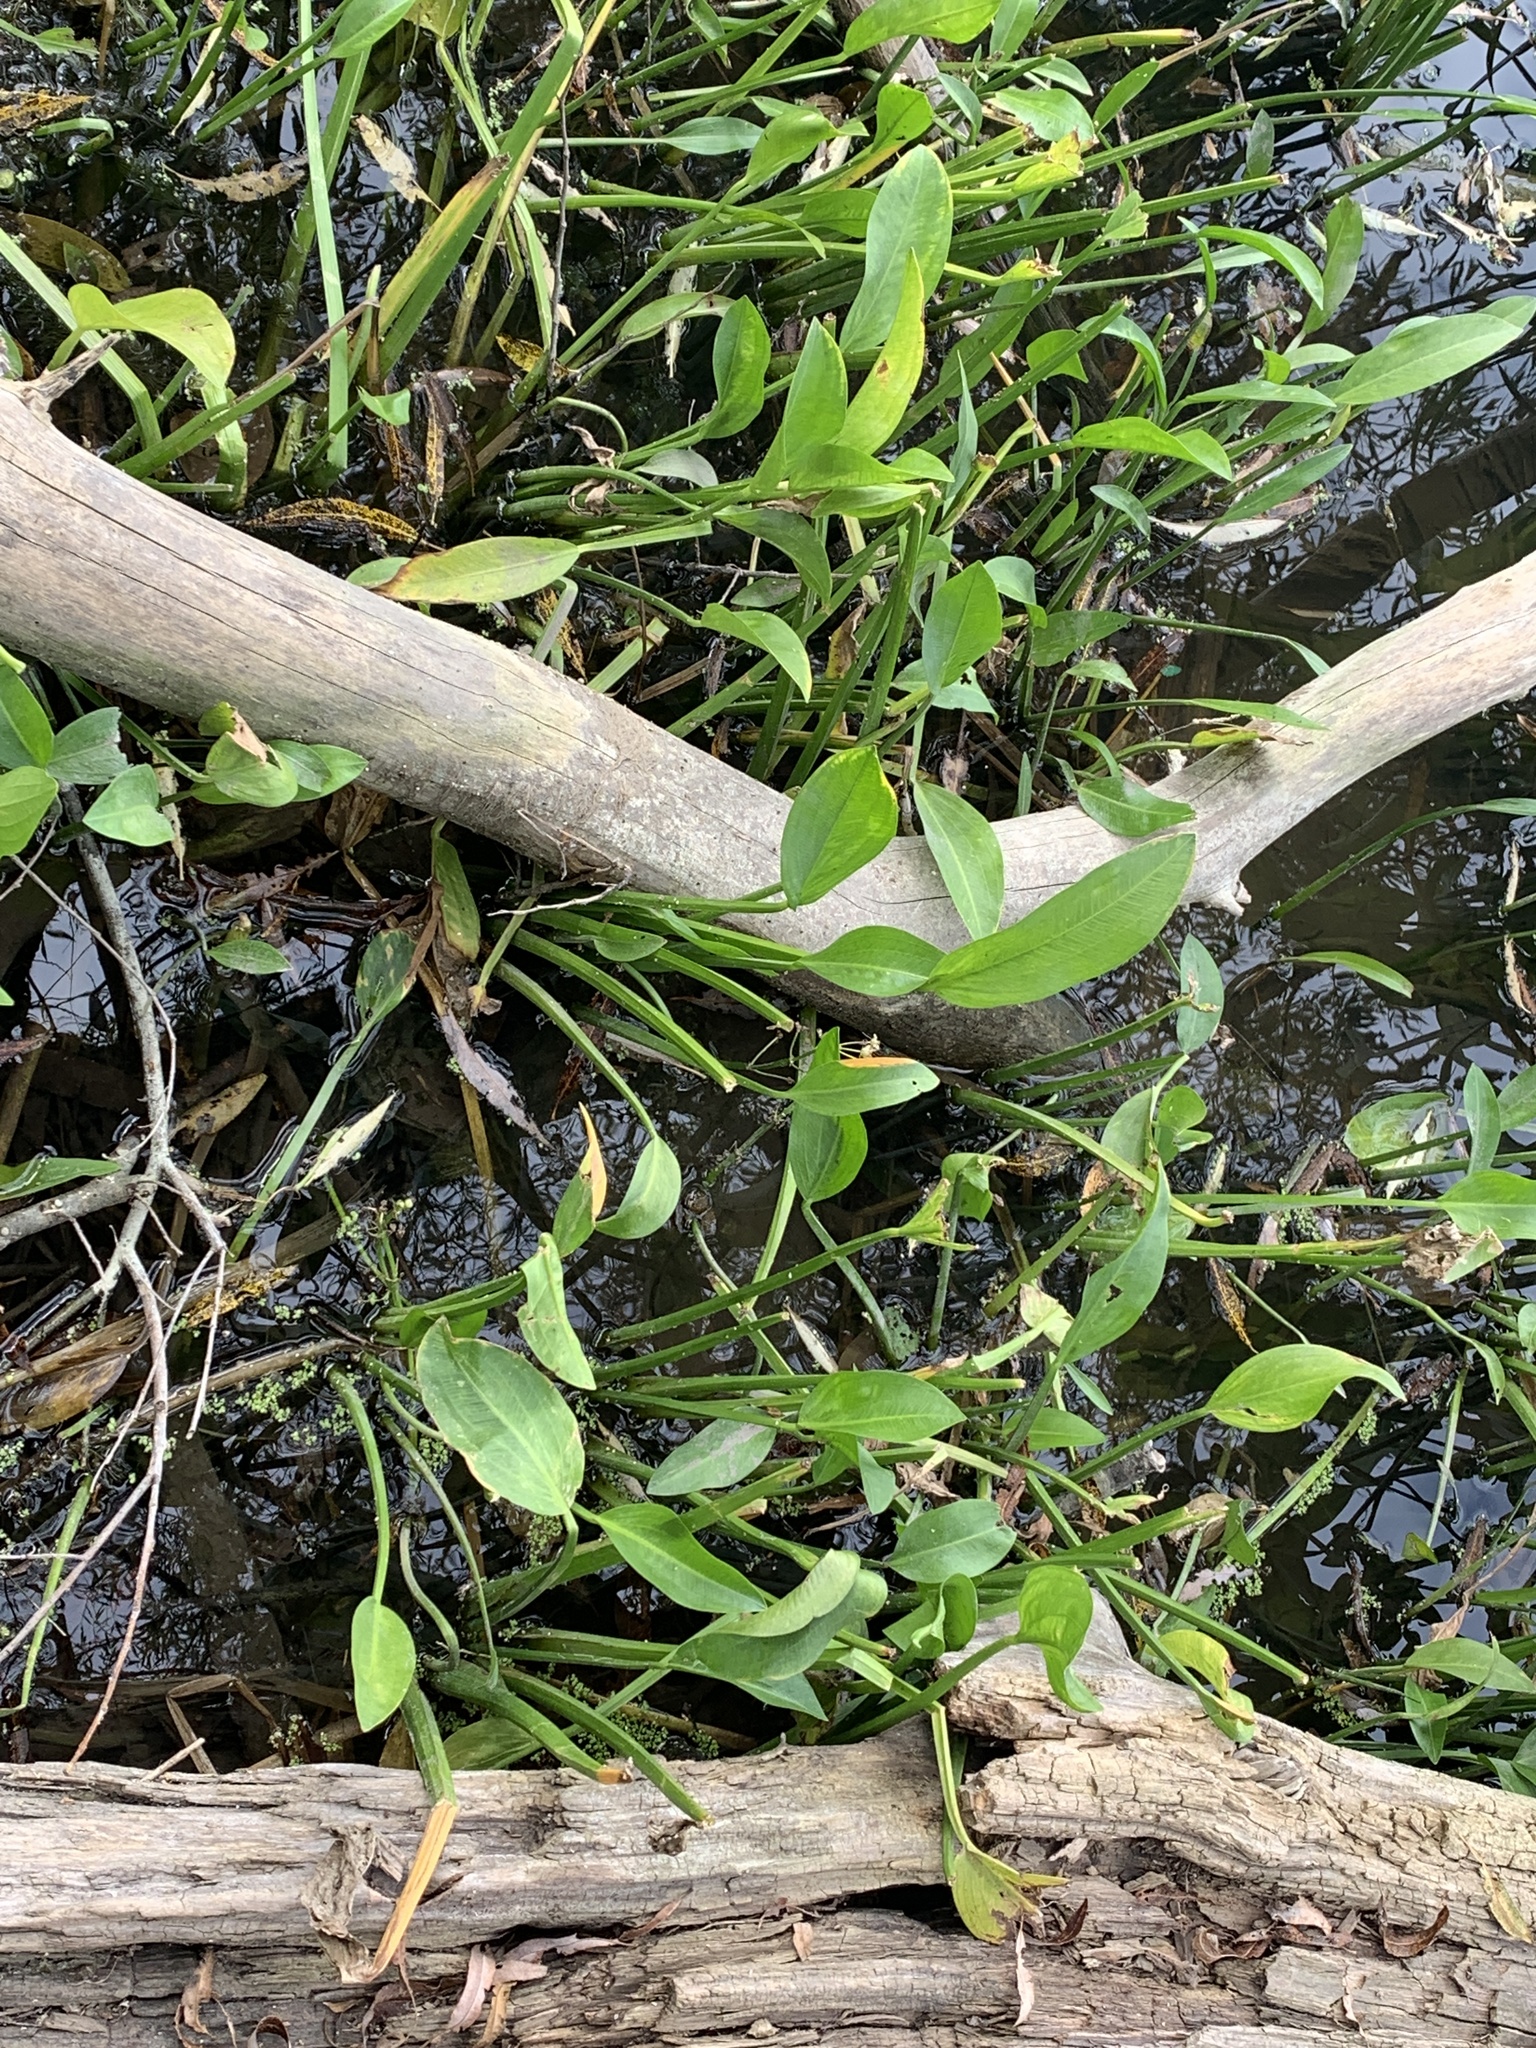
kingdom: Plantae
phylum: Tracheophyta
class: Liliopsida
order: Alismatales
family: Alismataceae
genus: Sagittaria
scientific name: Sagittaria rigida
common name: Canadian arrowhead
